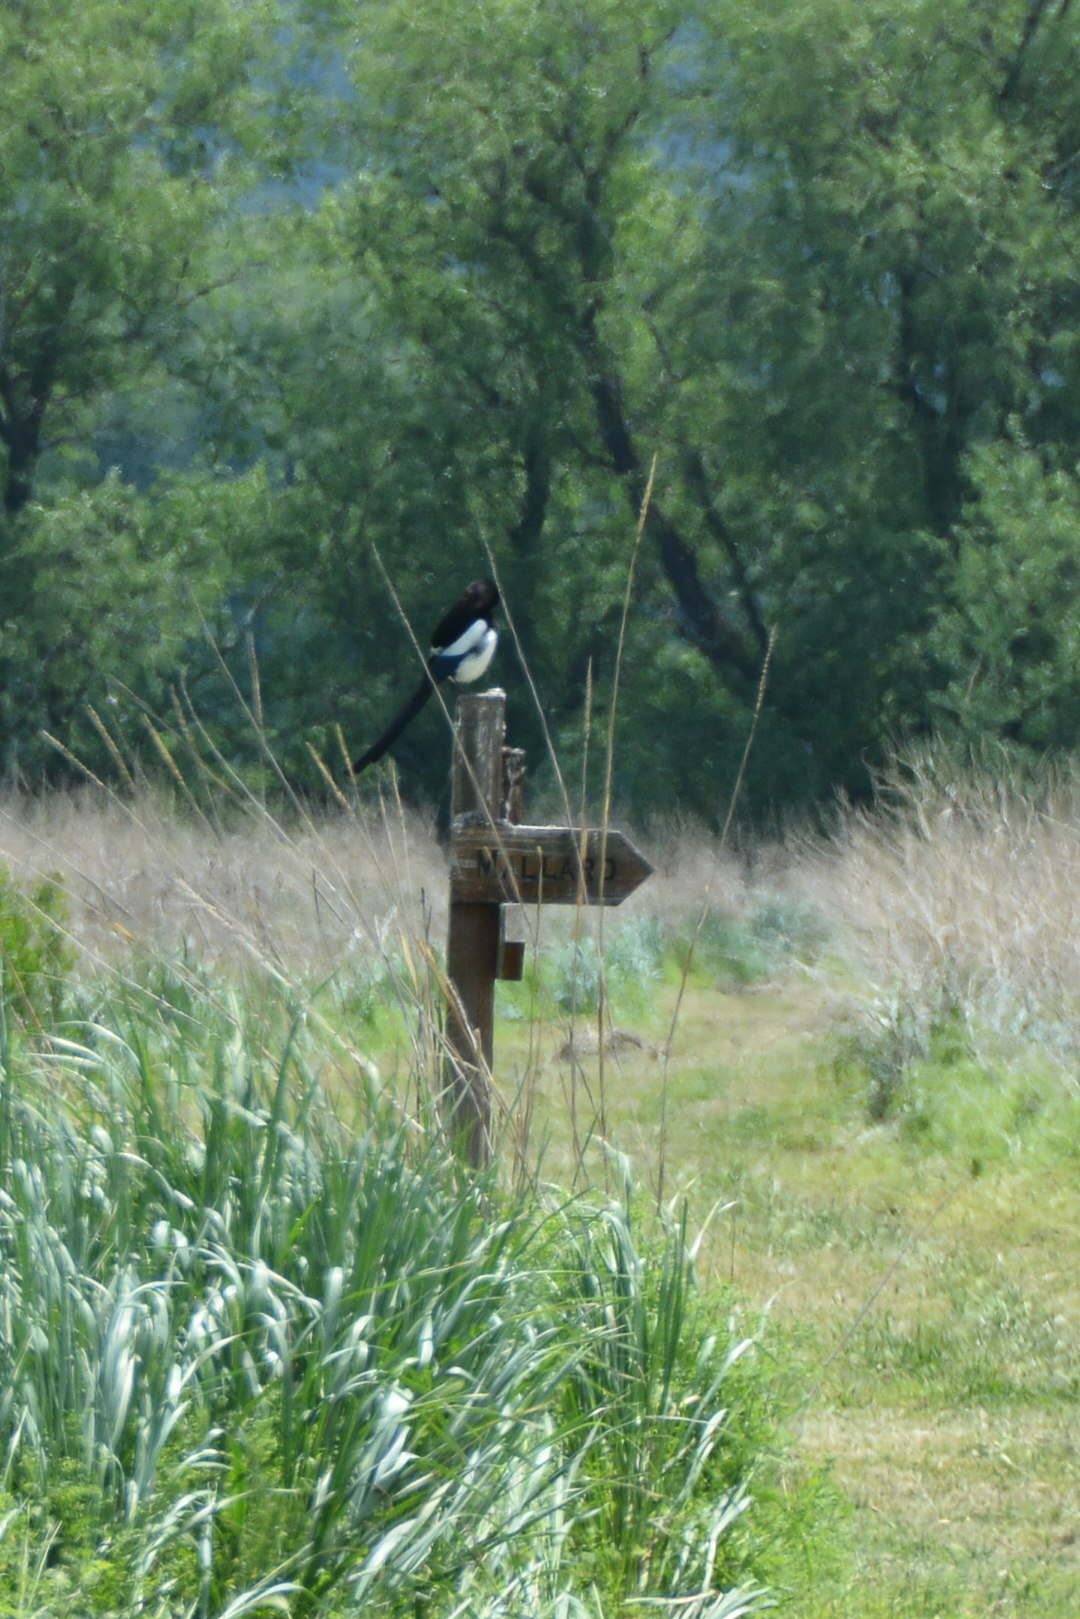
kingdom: Animalia
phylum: Chordata
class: Aves
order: Passeriformes
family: Corvidae
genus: Pica
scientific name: Pica hudsonia
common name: Black-billed magpie
